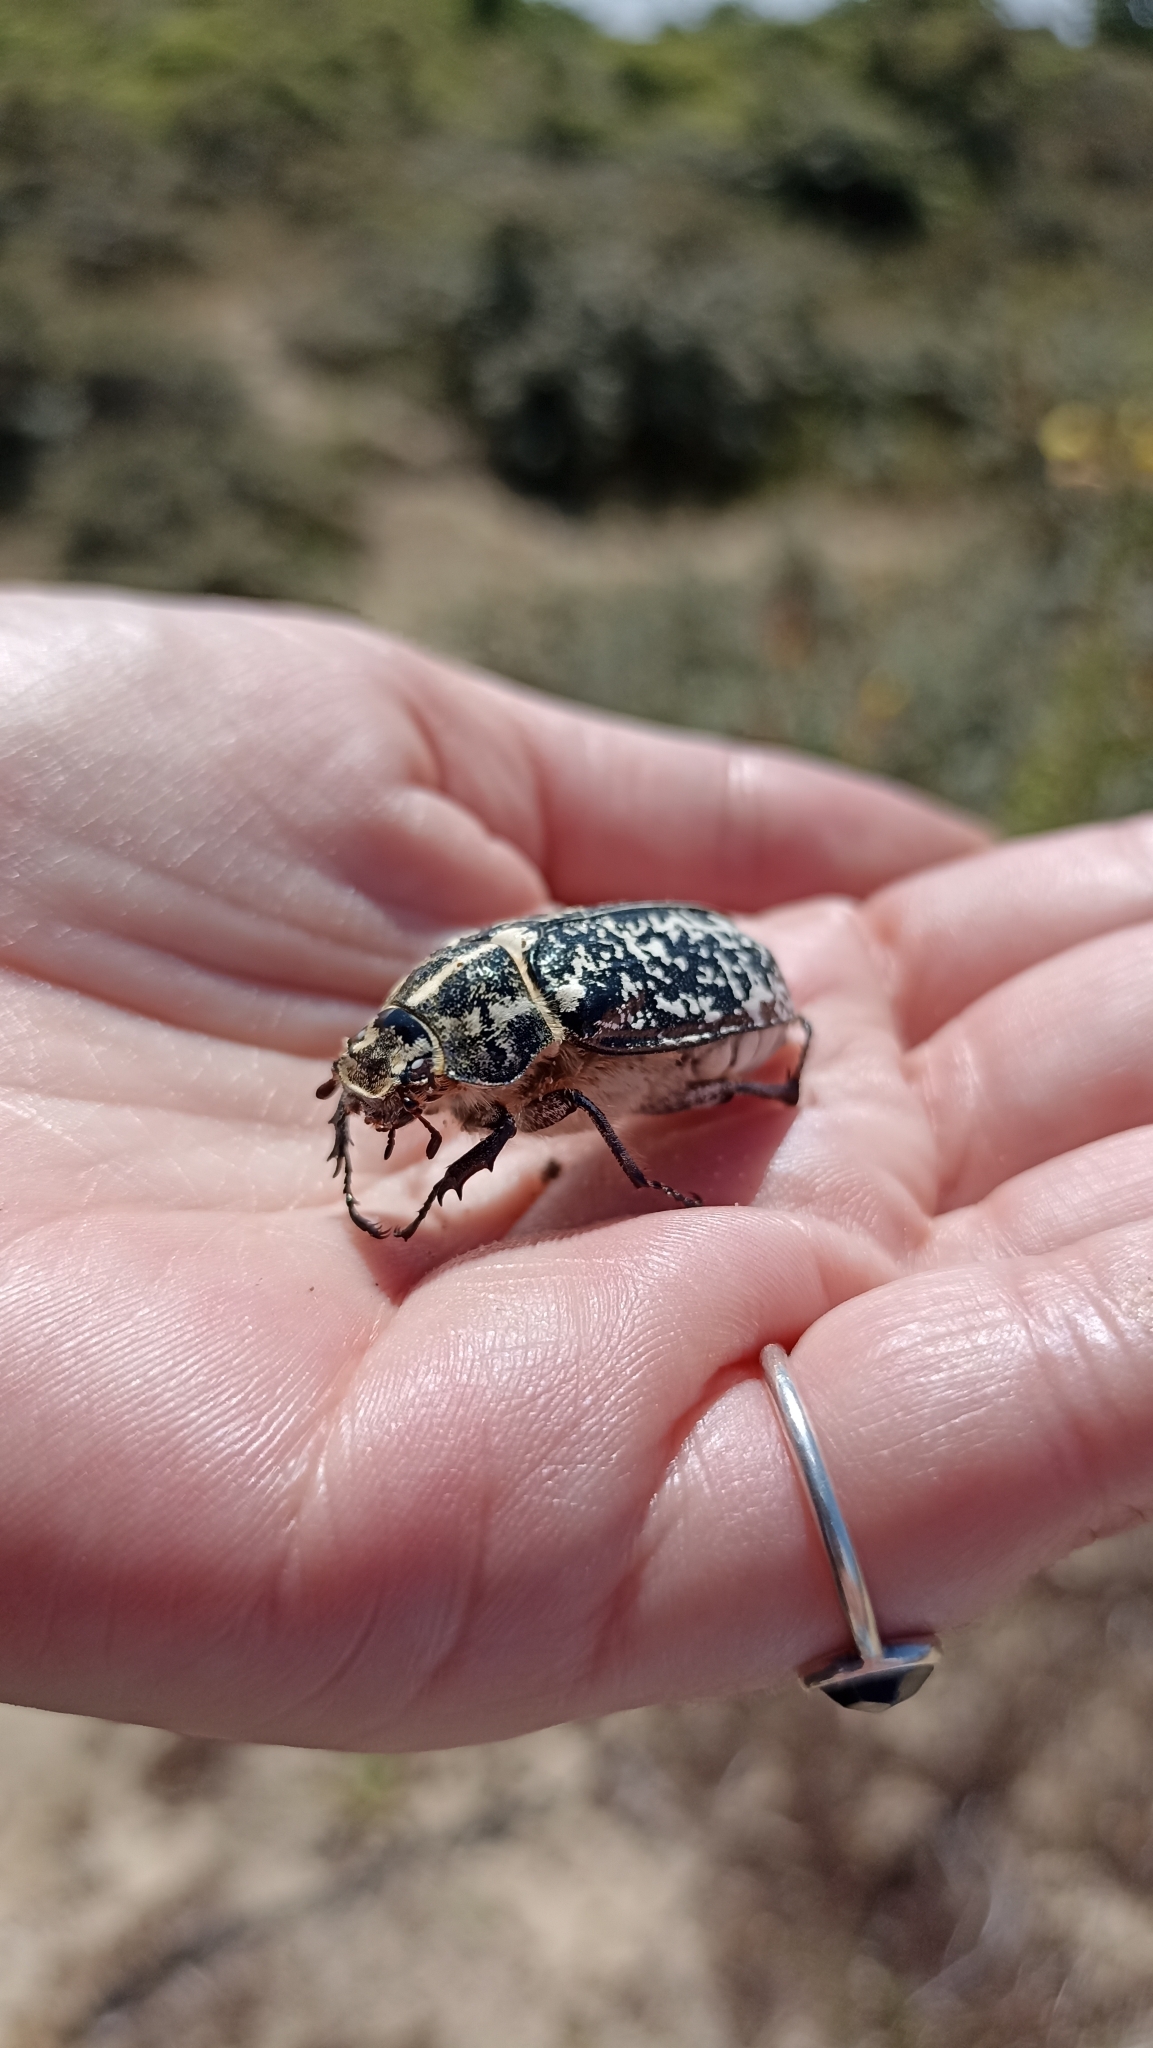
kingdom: Animalia
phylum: Arthropoda
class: Insecta
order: Coleoptera
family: Scarabaeidae
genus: Polyphylla
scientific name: Polyphylla fullo
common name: Pine chafer
